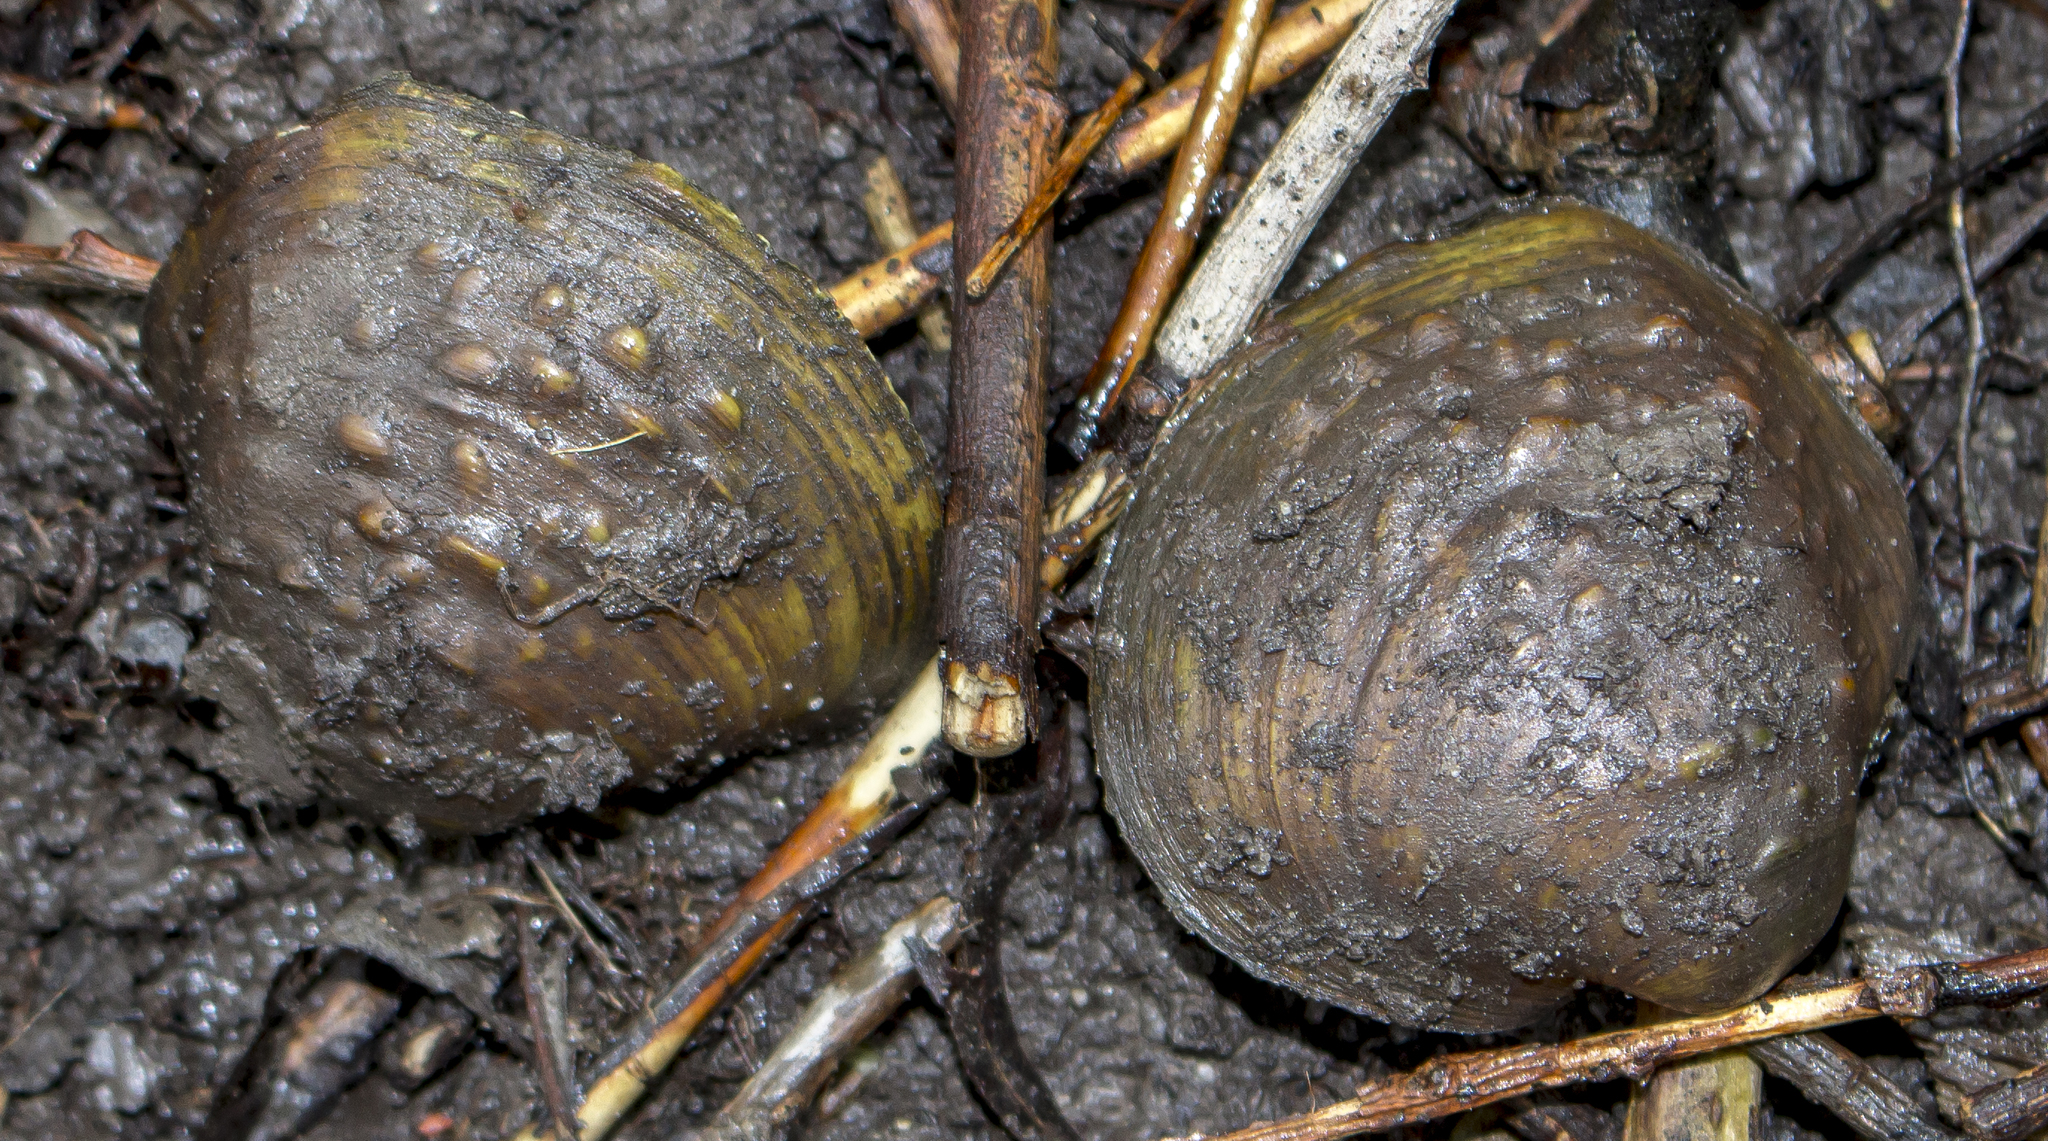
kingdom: Animalia
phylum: Mollusca
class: Bivalvia
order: Unionida
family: Unionidae
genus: Cyclonaias
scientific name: Cyclonaias pustulosa
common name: Pimpleback
